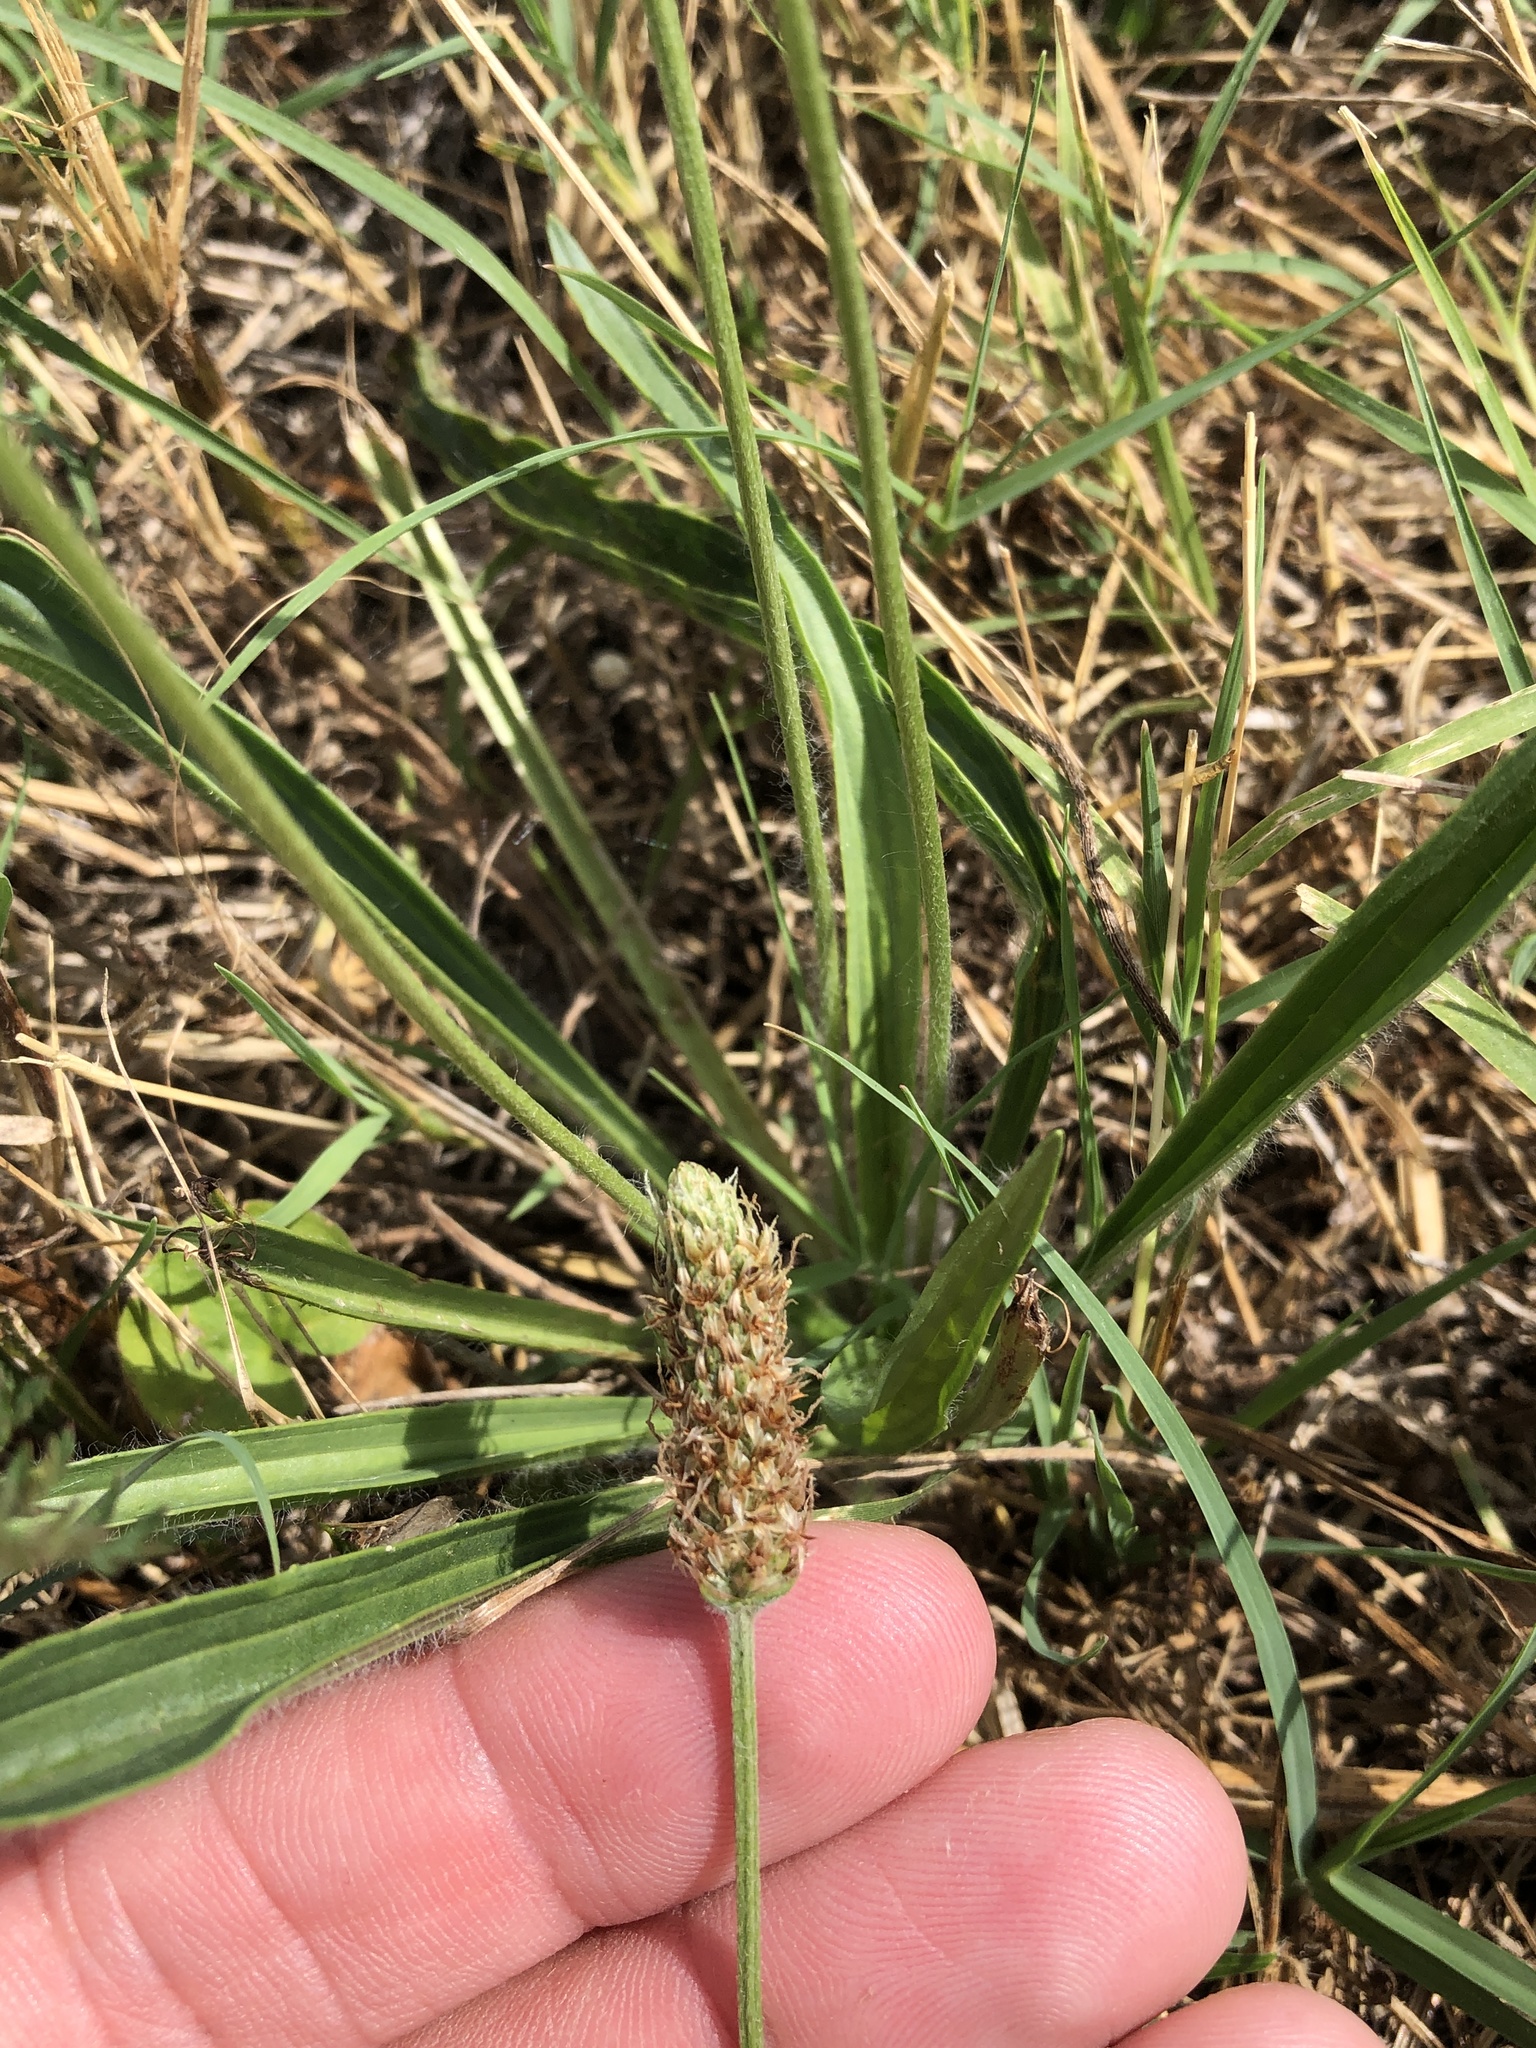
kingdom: Plantae
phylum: Tracheophyta
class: Magnoliopsida
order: Lamiales
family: Plantaginaceae
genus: Plantago
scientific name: Plantago lanceolata
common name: Ribwort plantain
